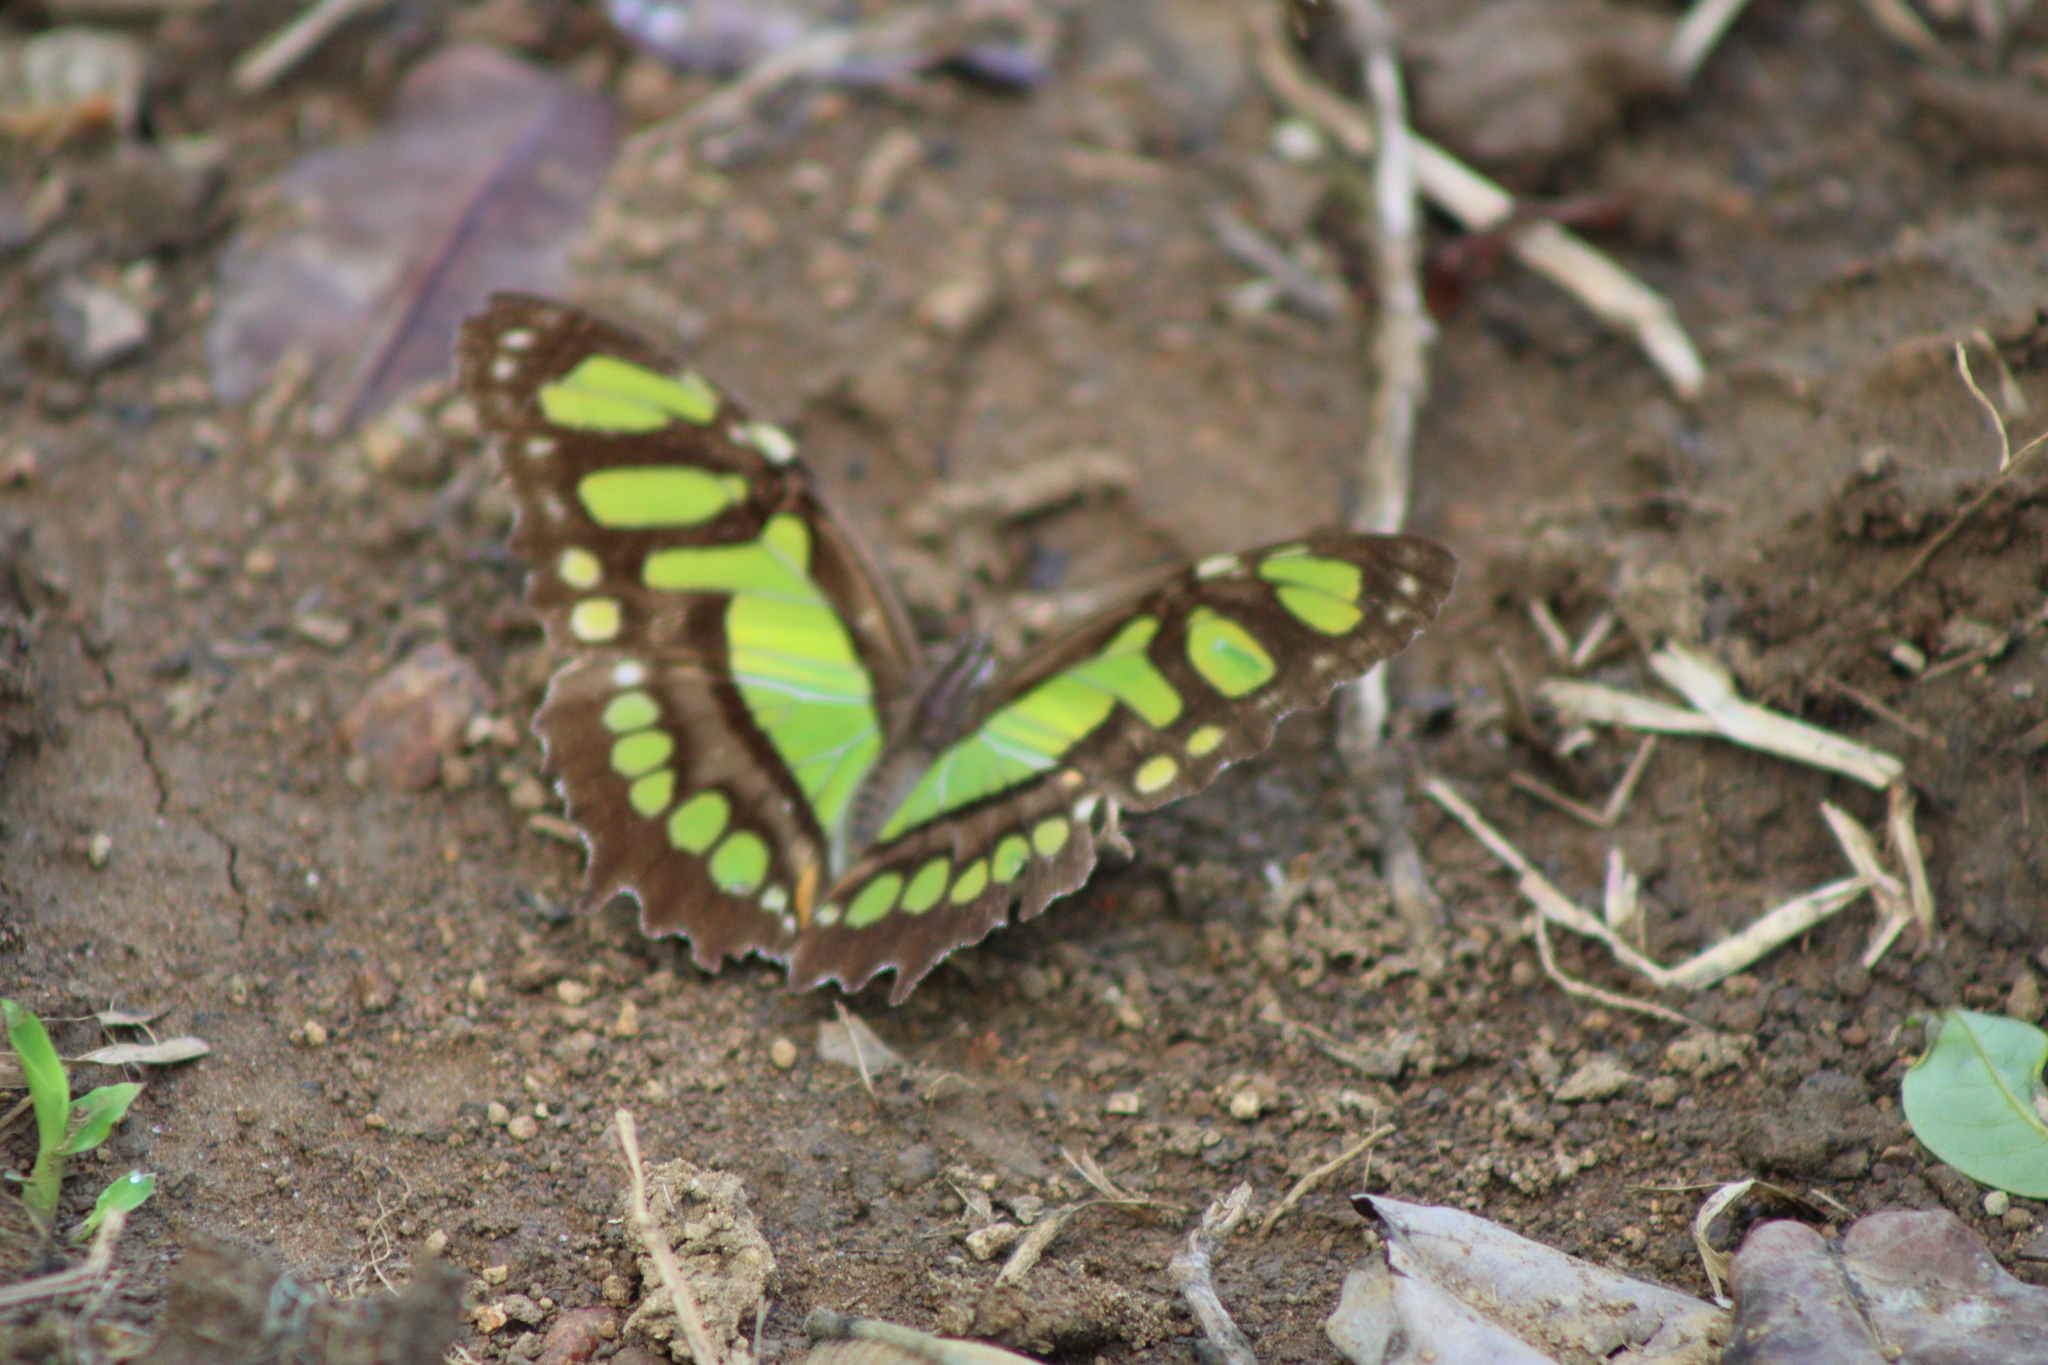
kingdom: Animalia
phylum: Arthropoda
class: Insecta
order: Lepidoptera
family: Nymphalidae
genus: Siproeta
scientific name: Siproeta stelenes
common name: Malachite
